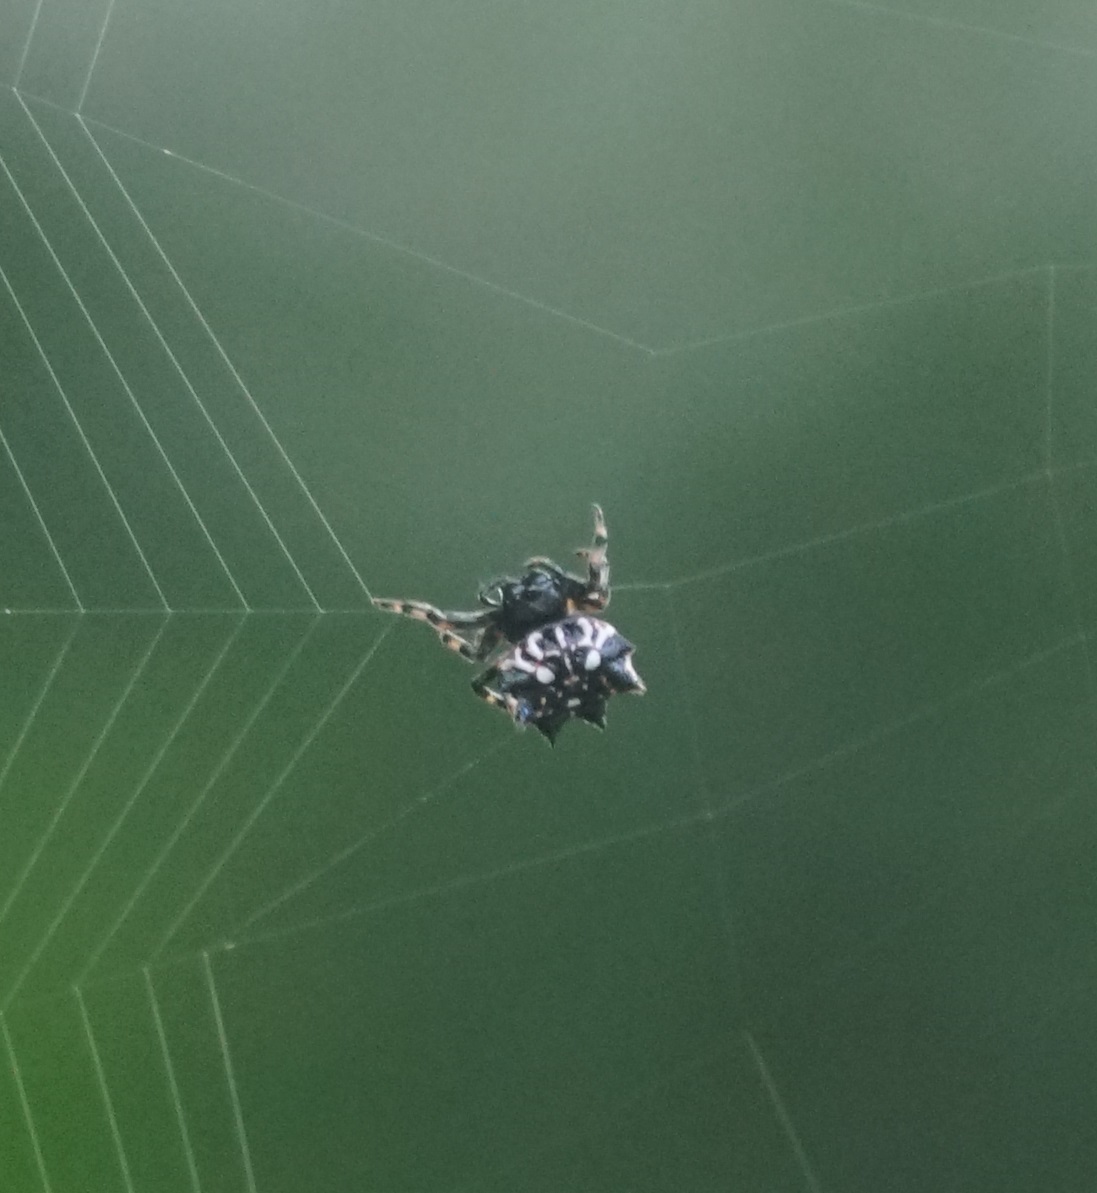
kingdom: Animalia
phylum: Arthropoda
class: Arachnida
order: Araneae
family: Araneidae
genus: Gasteracantha
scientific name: Gasteracantha sacerdotalis
